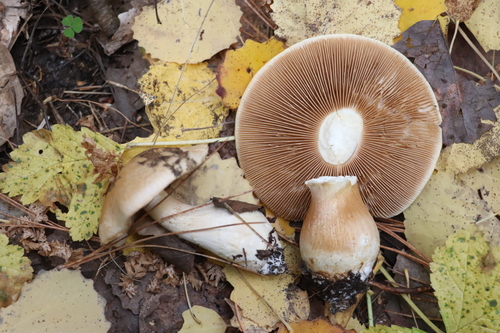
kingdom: Fungi
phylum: Basidiomycota
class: Agaricomycetes
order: Agaricales
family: Cortinariaceae
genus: Phlegmacium
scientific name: Phlegmacium argutum
